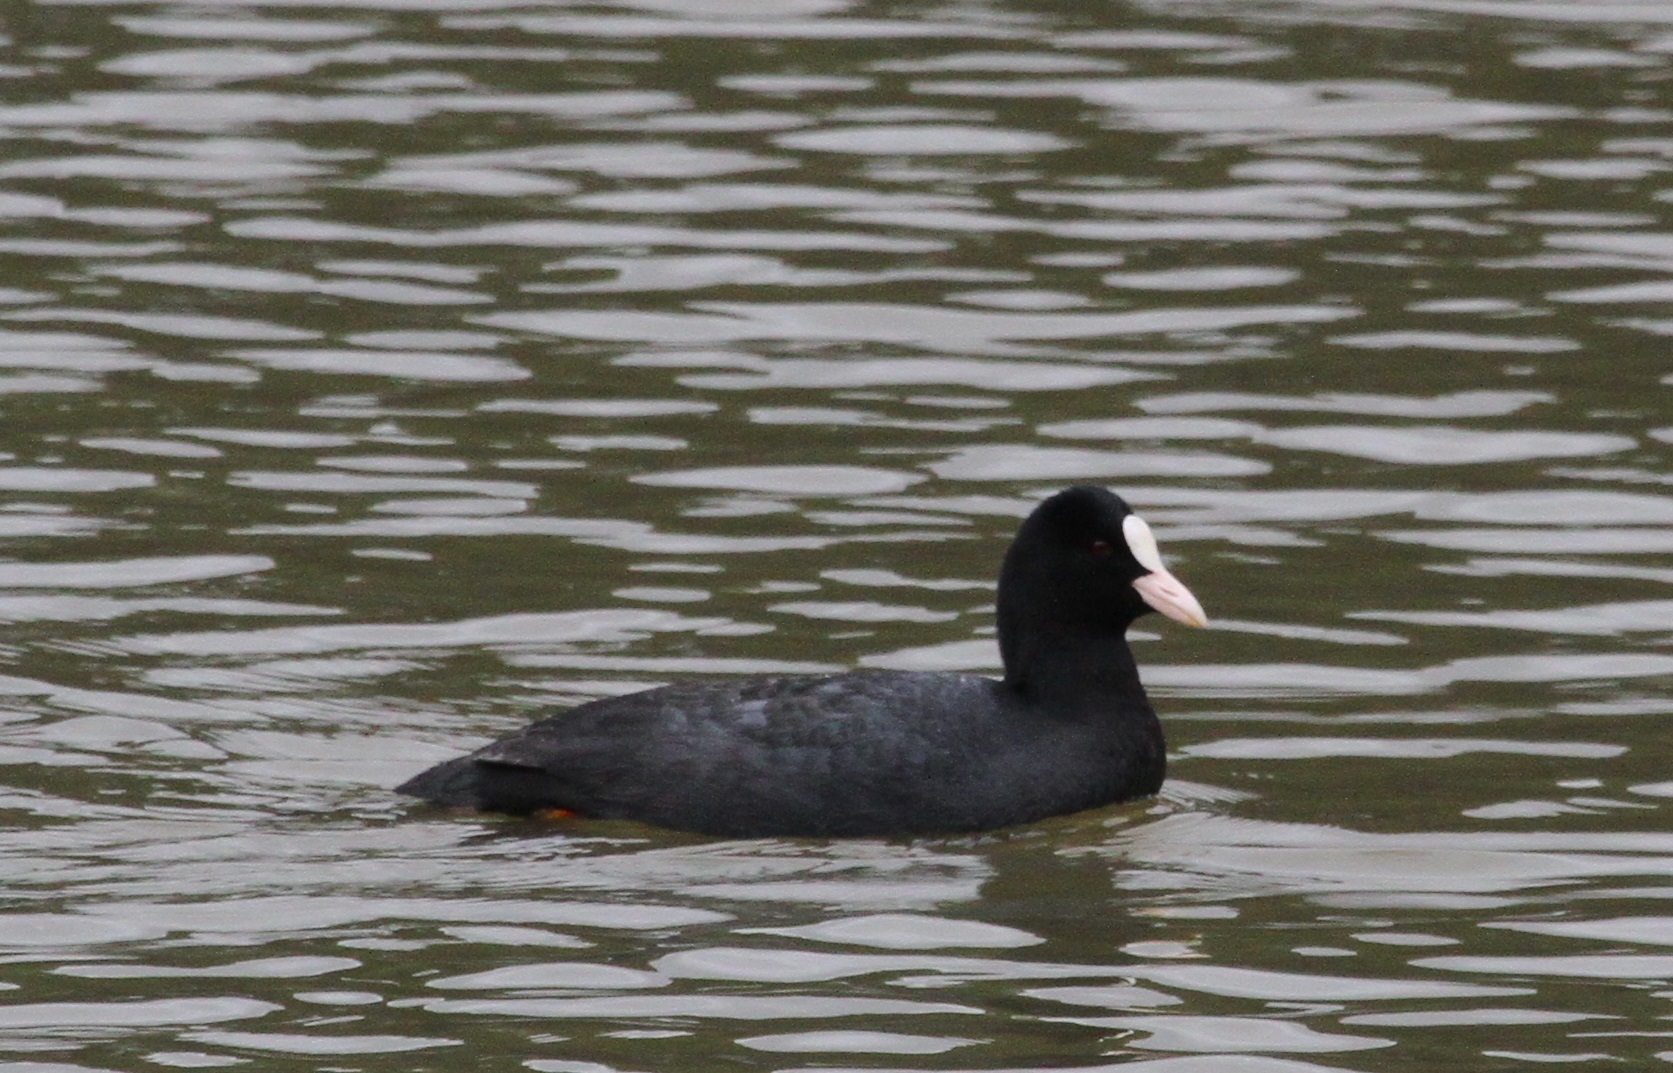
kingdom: Animalia
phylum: Chordata
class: Aves
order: Gruiformes
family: Rallidae
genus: Fulica
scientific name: Fulica atra
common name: Eurasian coot
